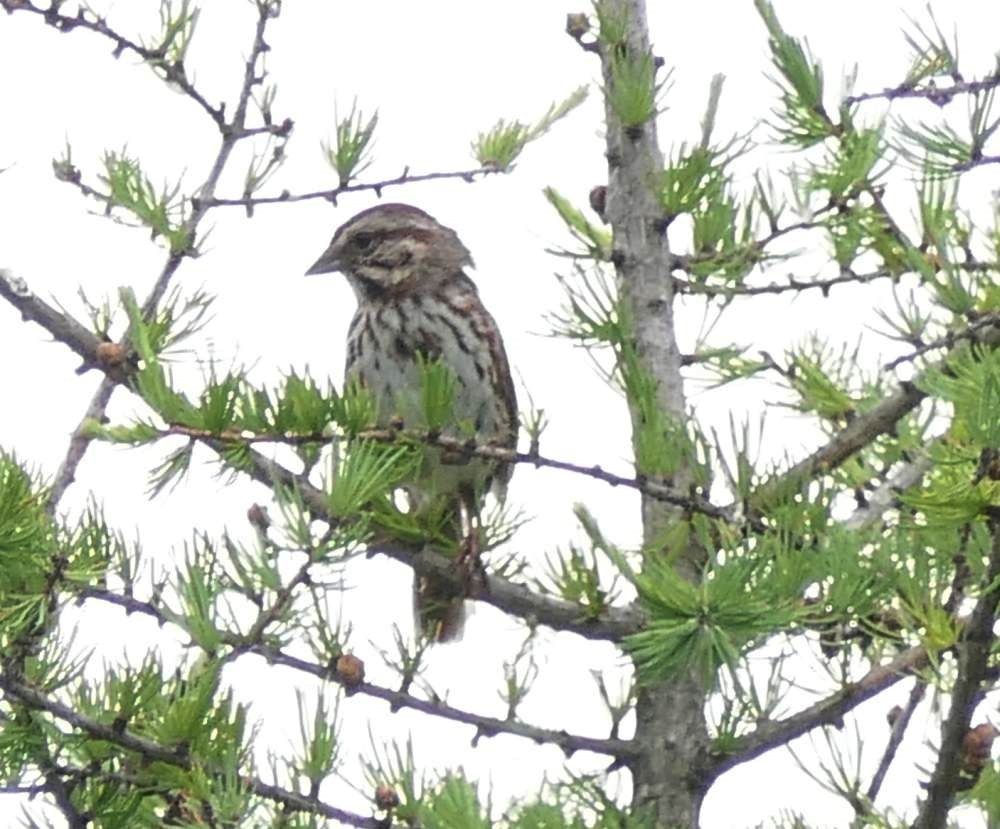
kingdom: Animalia
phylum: Chordata
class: Aves
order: Passeriformes
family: Passerellidae
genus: Melospiza
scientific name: Melospiza melodia
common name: Song sparrow
